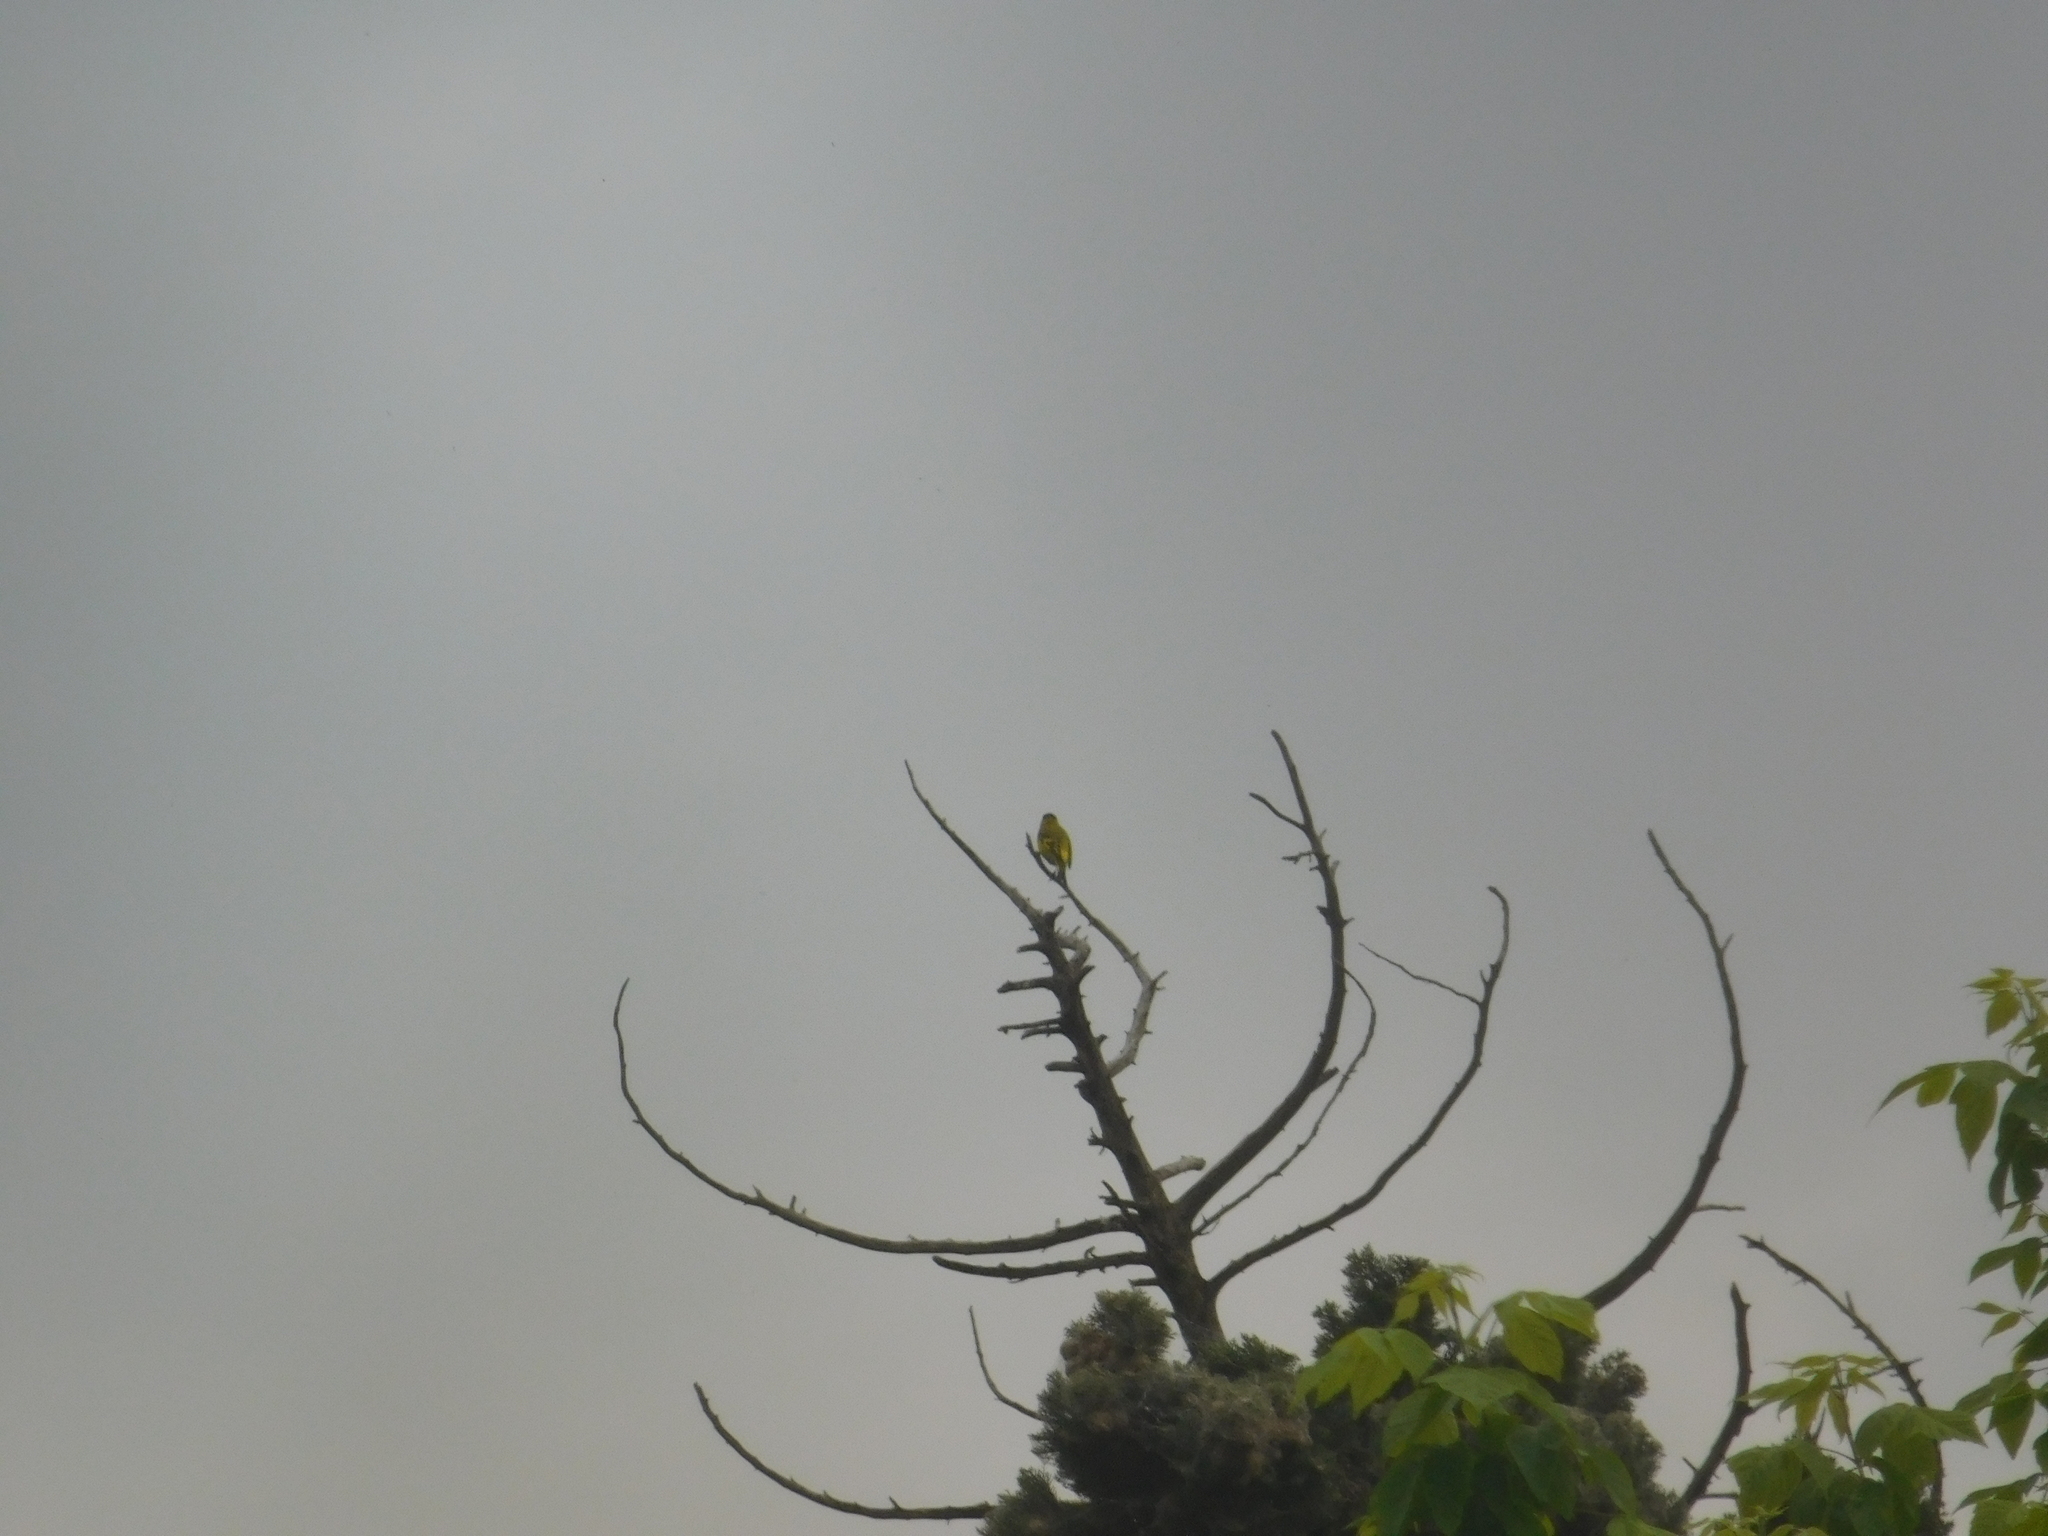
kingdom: Animalia
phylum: Chordata
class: Aves
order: Passeriformes
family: Fringillidae
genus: Spinus
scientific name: Spinus magellanicus
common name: Hooded siskin
